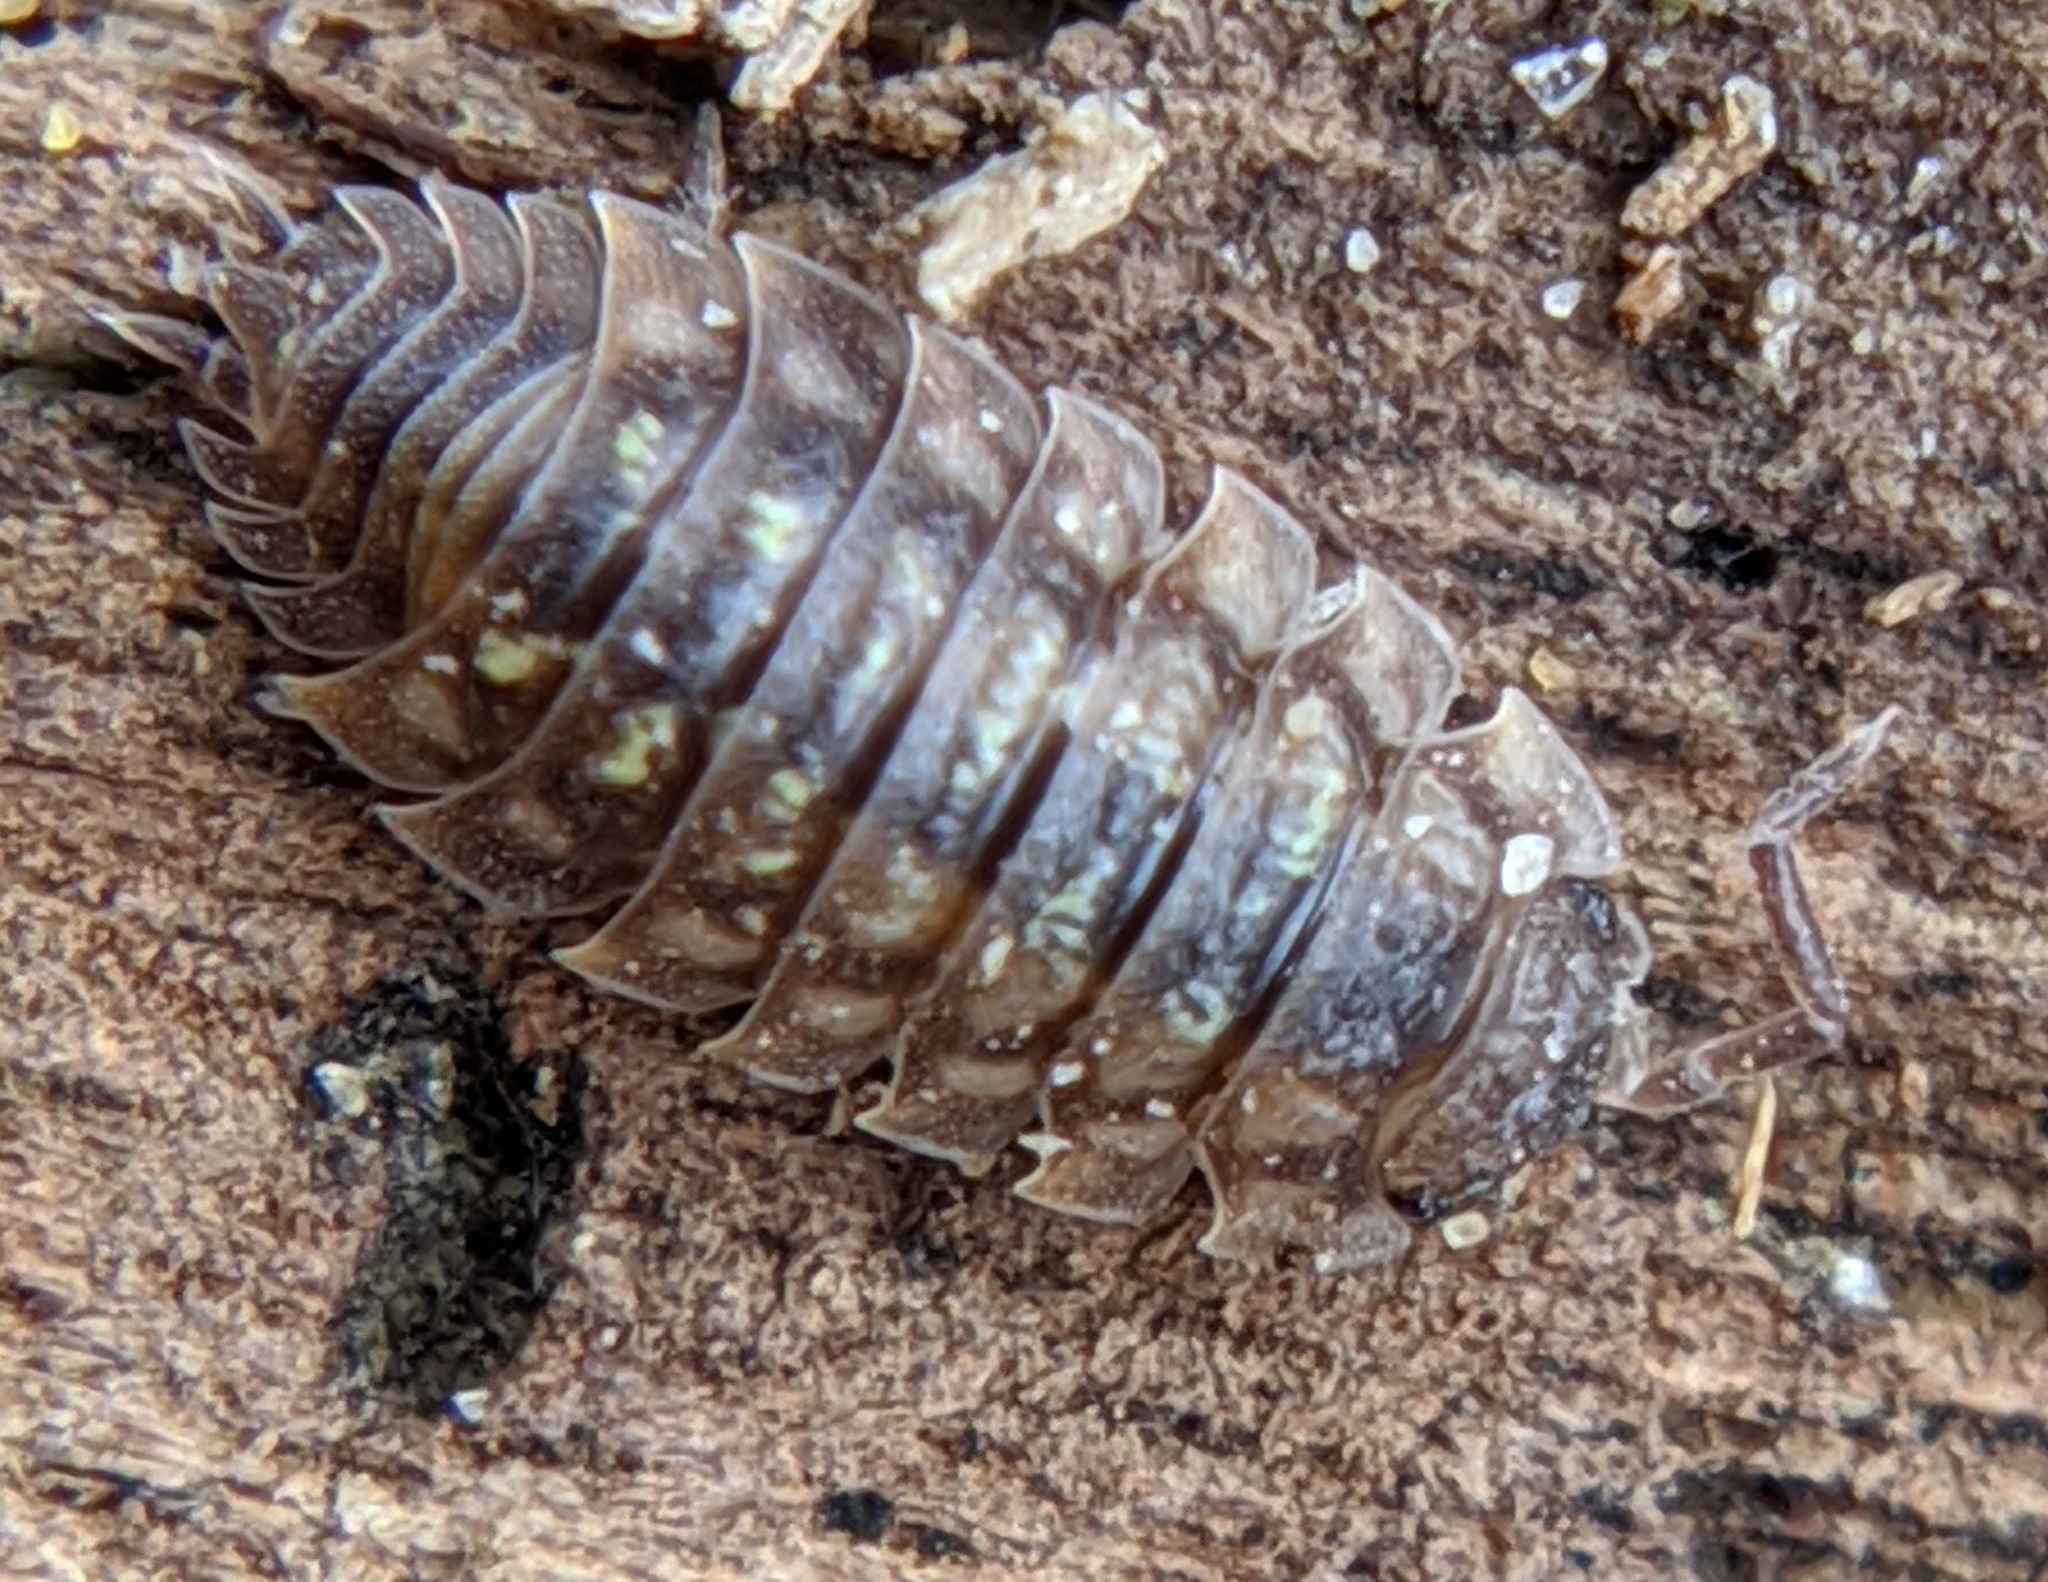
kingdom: Animalia
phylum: Arthropoda
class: Malacostraca
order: Isopoda
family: Oniscidae
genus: Oniscus
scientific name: Oniscus asellus
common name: Common shiny woodlouse
